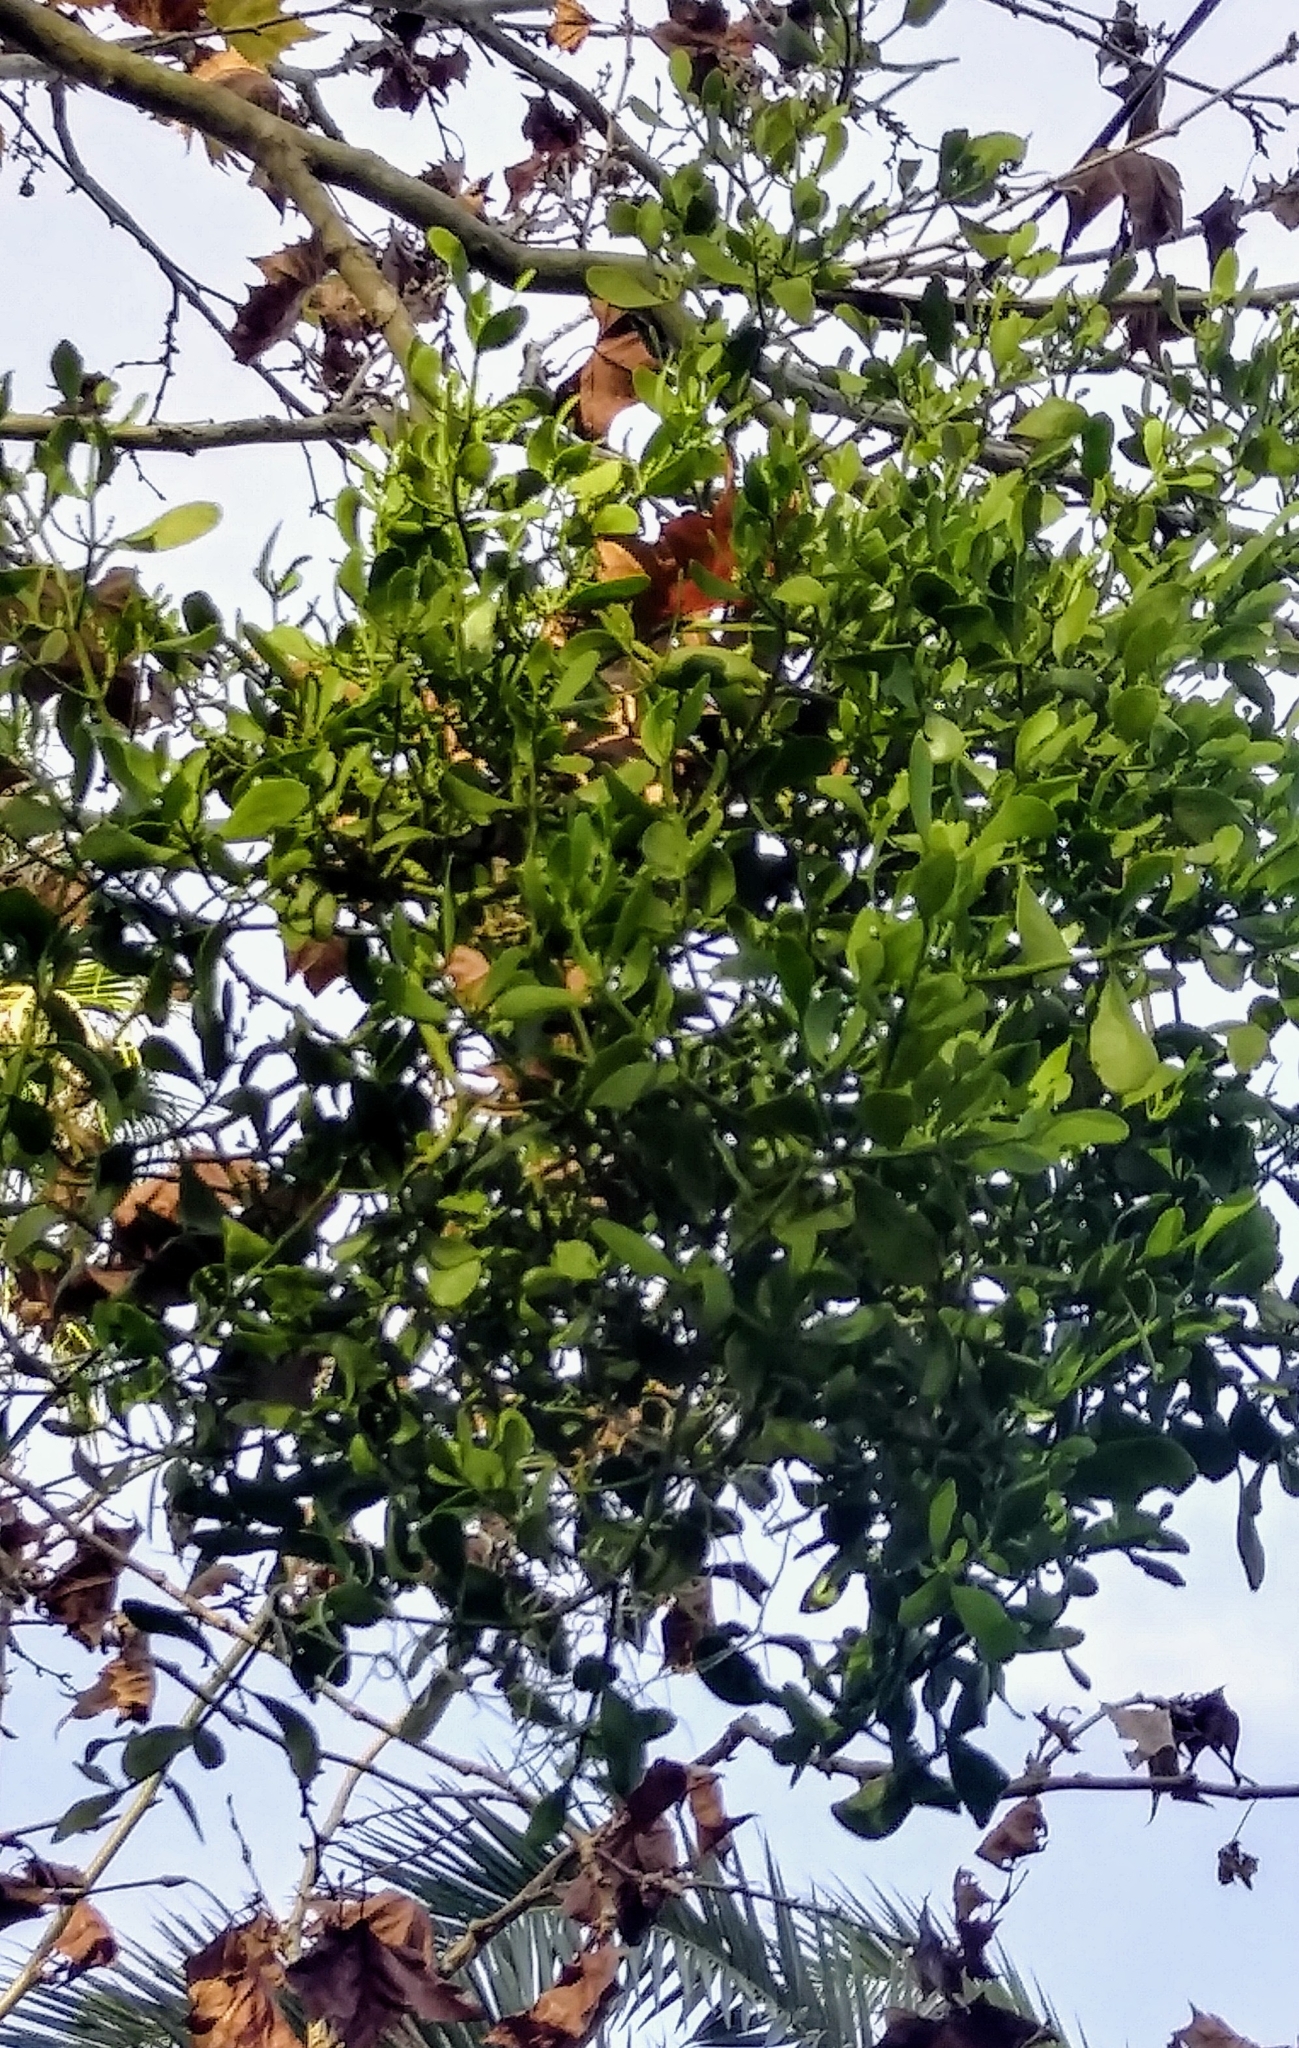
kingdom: Plantae
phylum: Tracheophyta
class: Magnoliopsida
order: Santalales
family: Viscaceae
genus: Phoradendron
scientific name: Phoradendron leucarpum
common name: Pacific mistletoe
